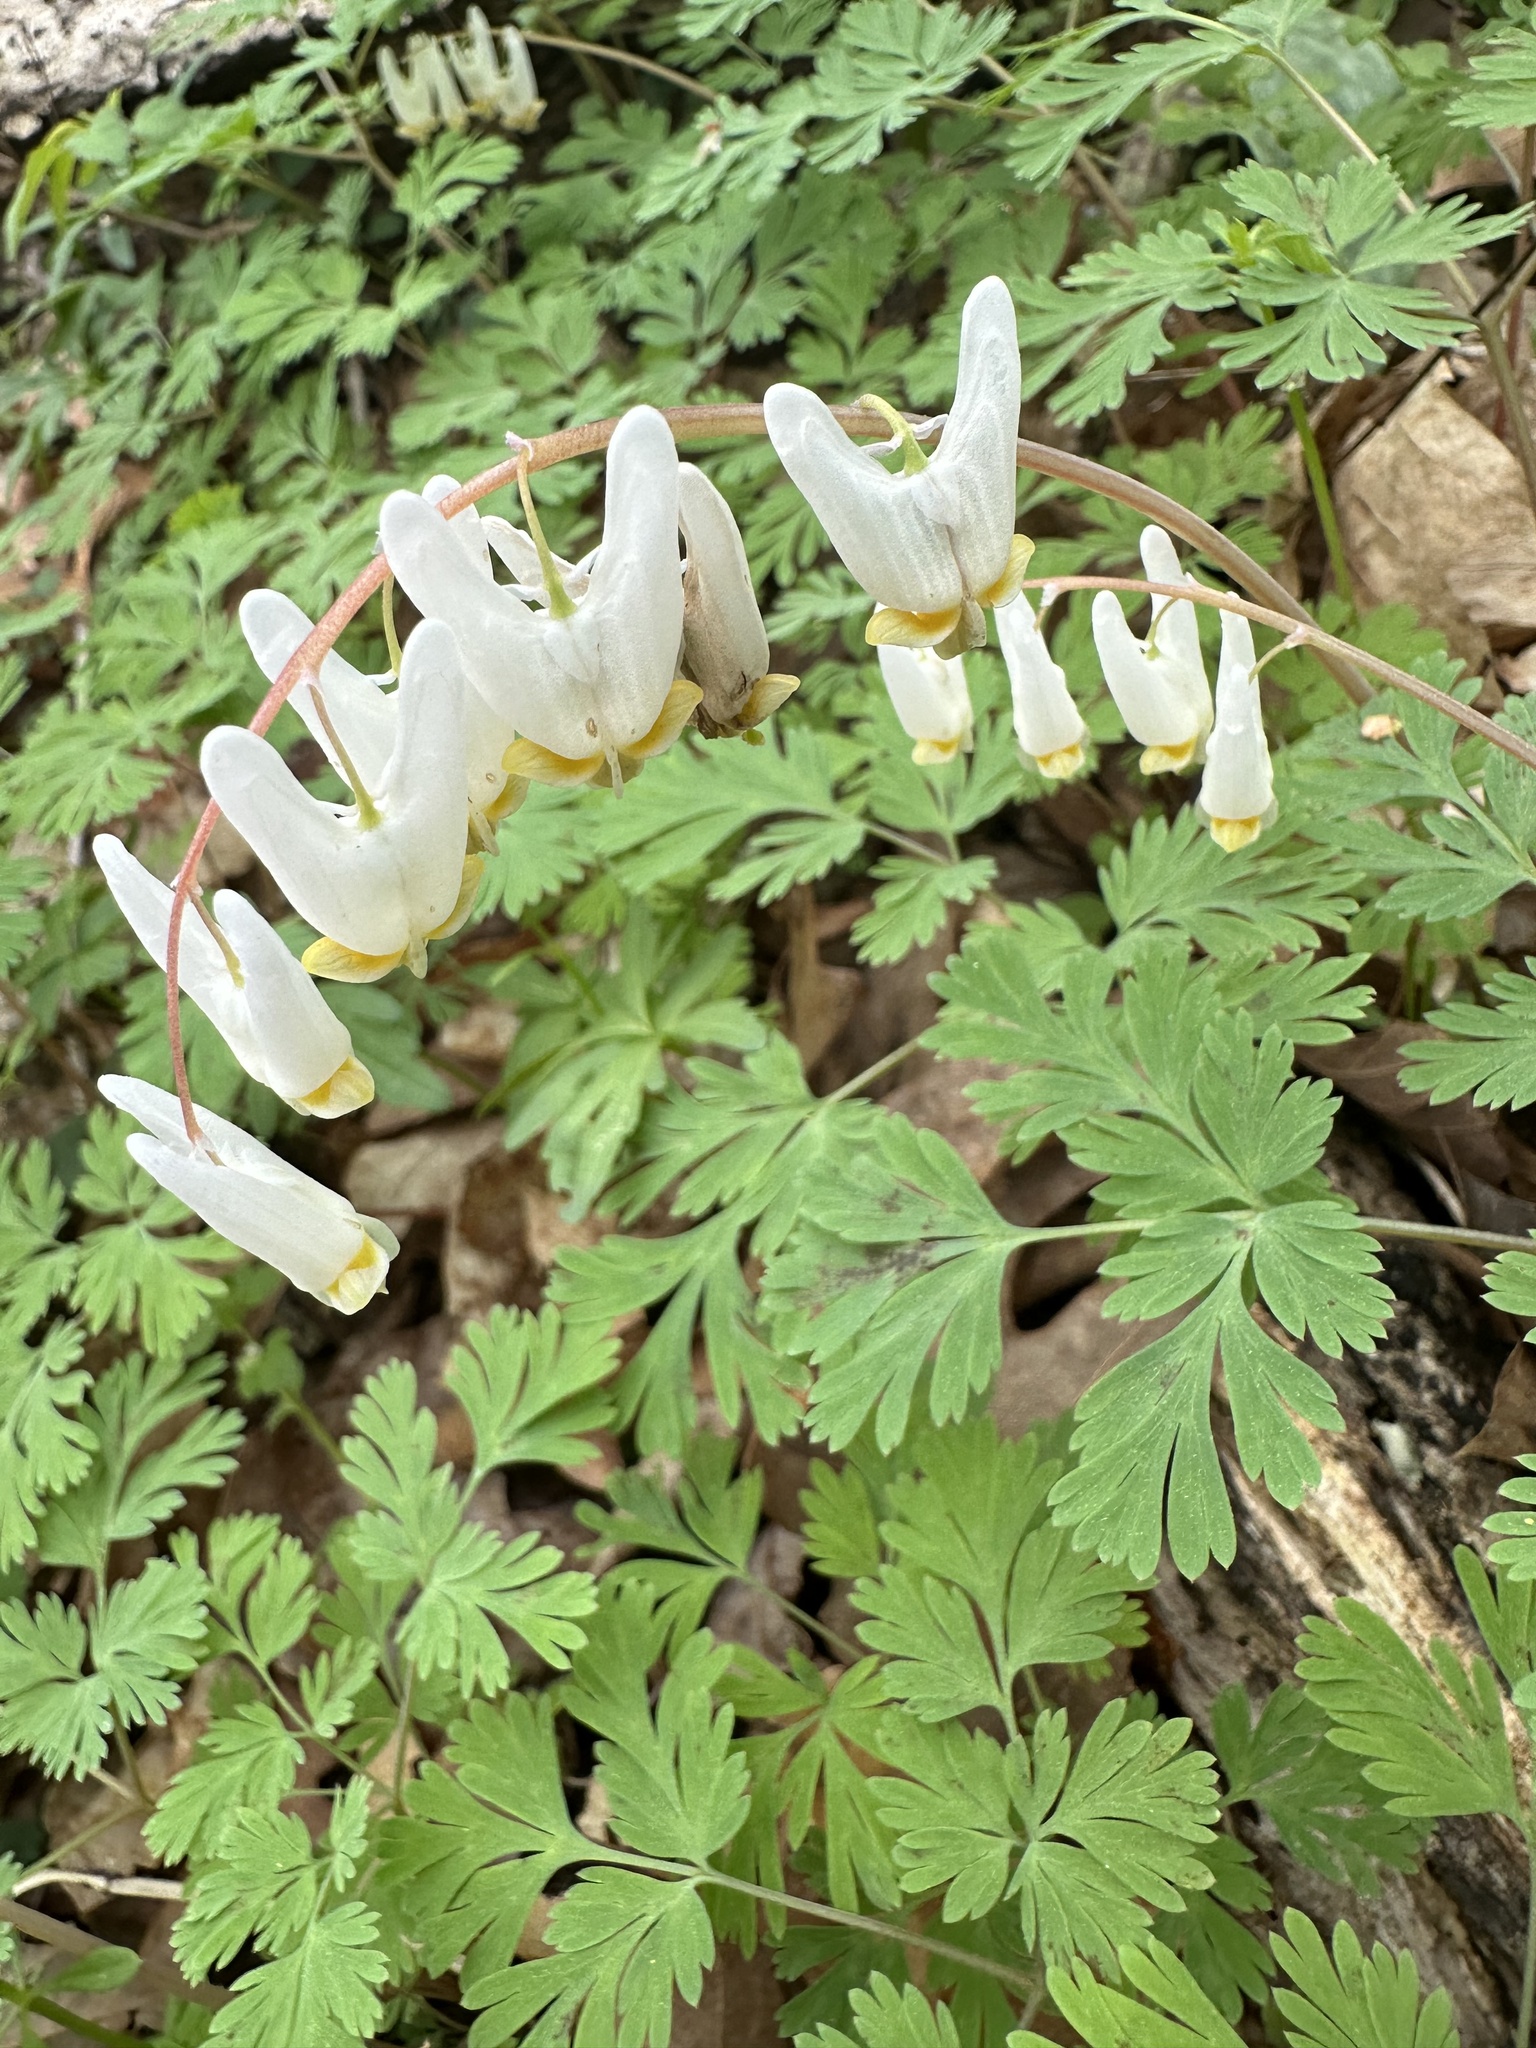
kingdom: Plantae
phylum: Tracheophyta
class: Magnoliopsida
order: Ranunculales
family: Papaveraceae
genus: Dicentra
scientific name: Dicentra cucullaria
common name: Dutchman's breeches
